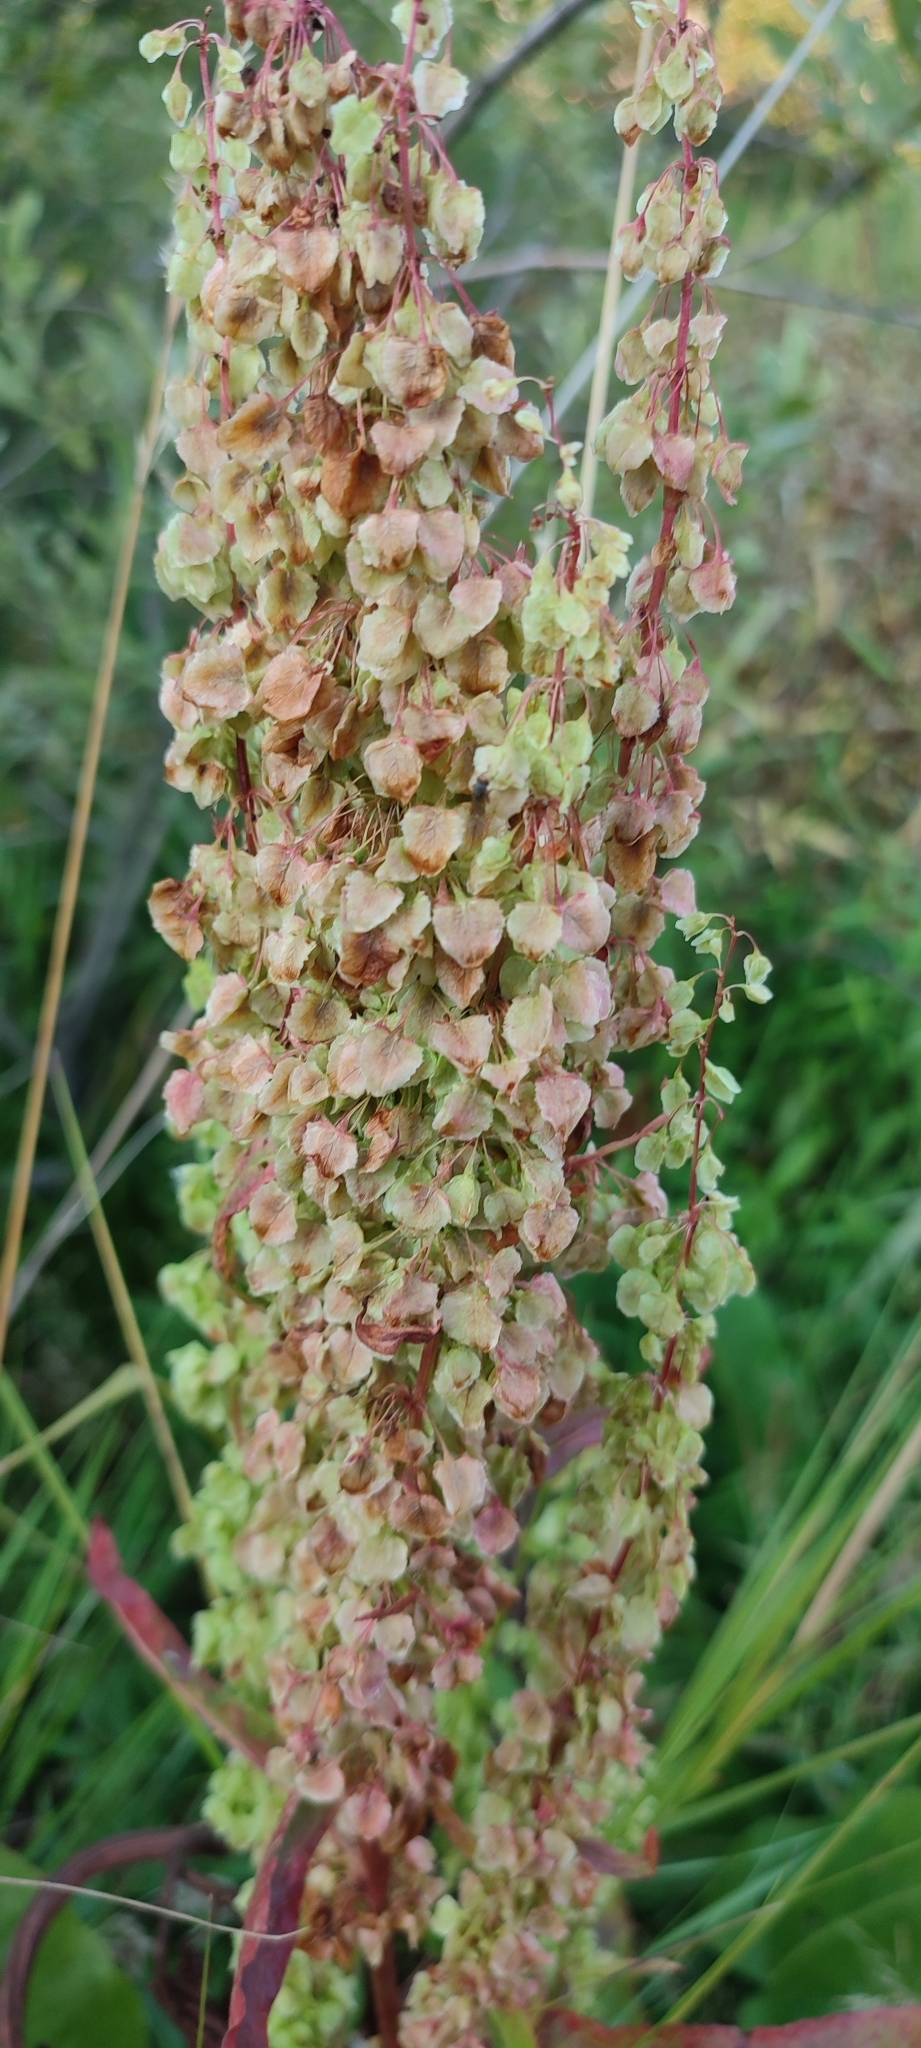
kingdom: Plantae
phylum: Tracheophyta
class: Magnoliopsida
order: Caryophyllales
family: Polygonaceae
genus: Rumex
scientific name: Rumex aquaticus
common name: Scottish dock
